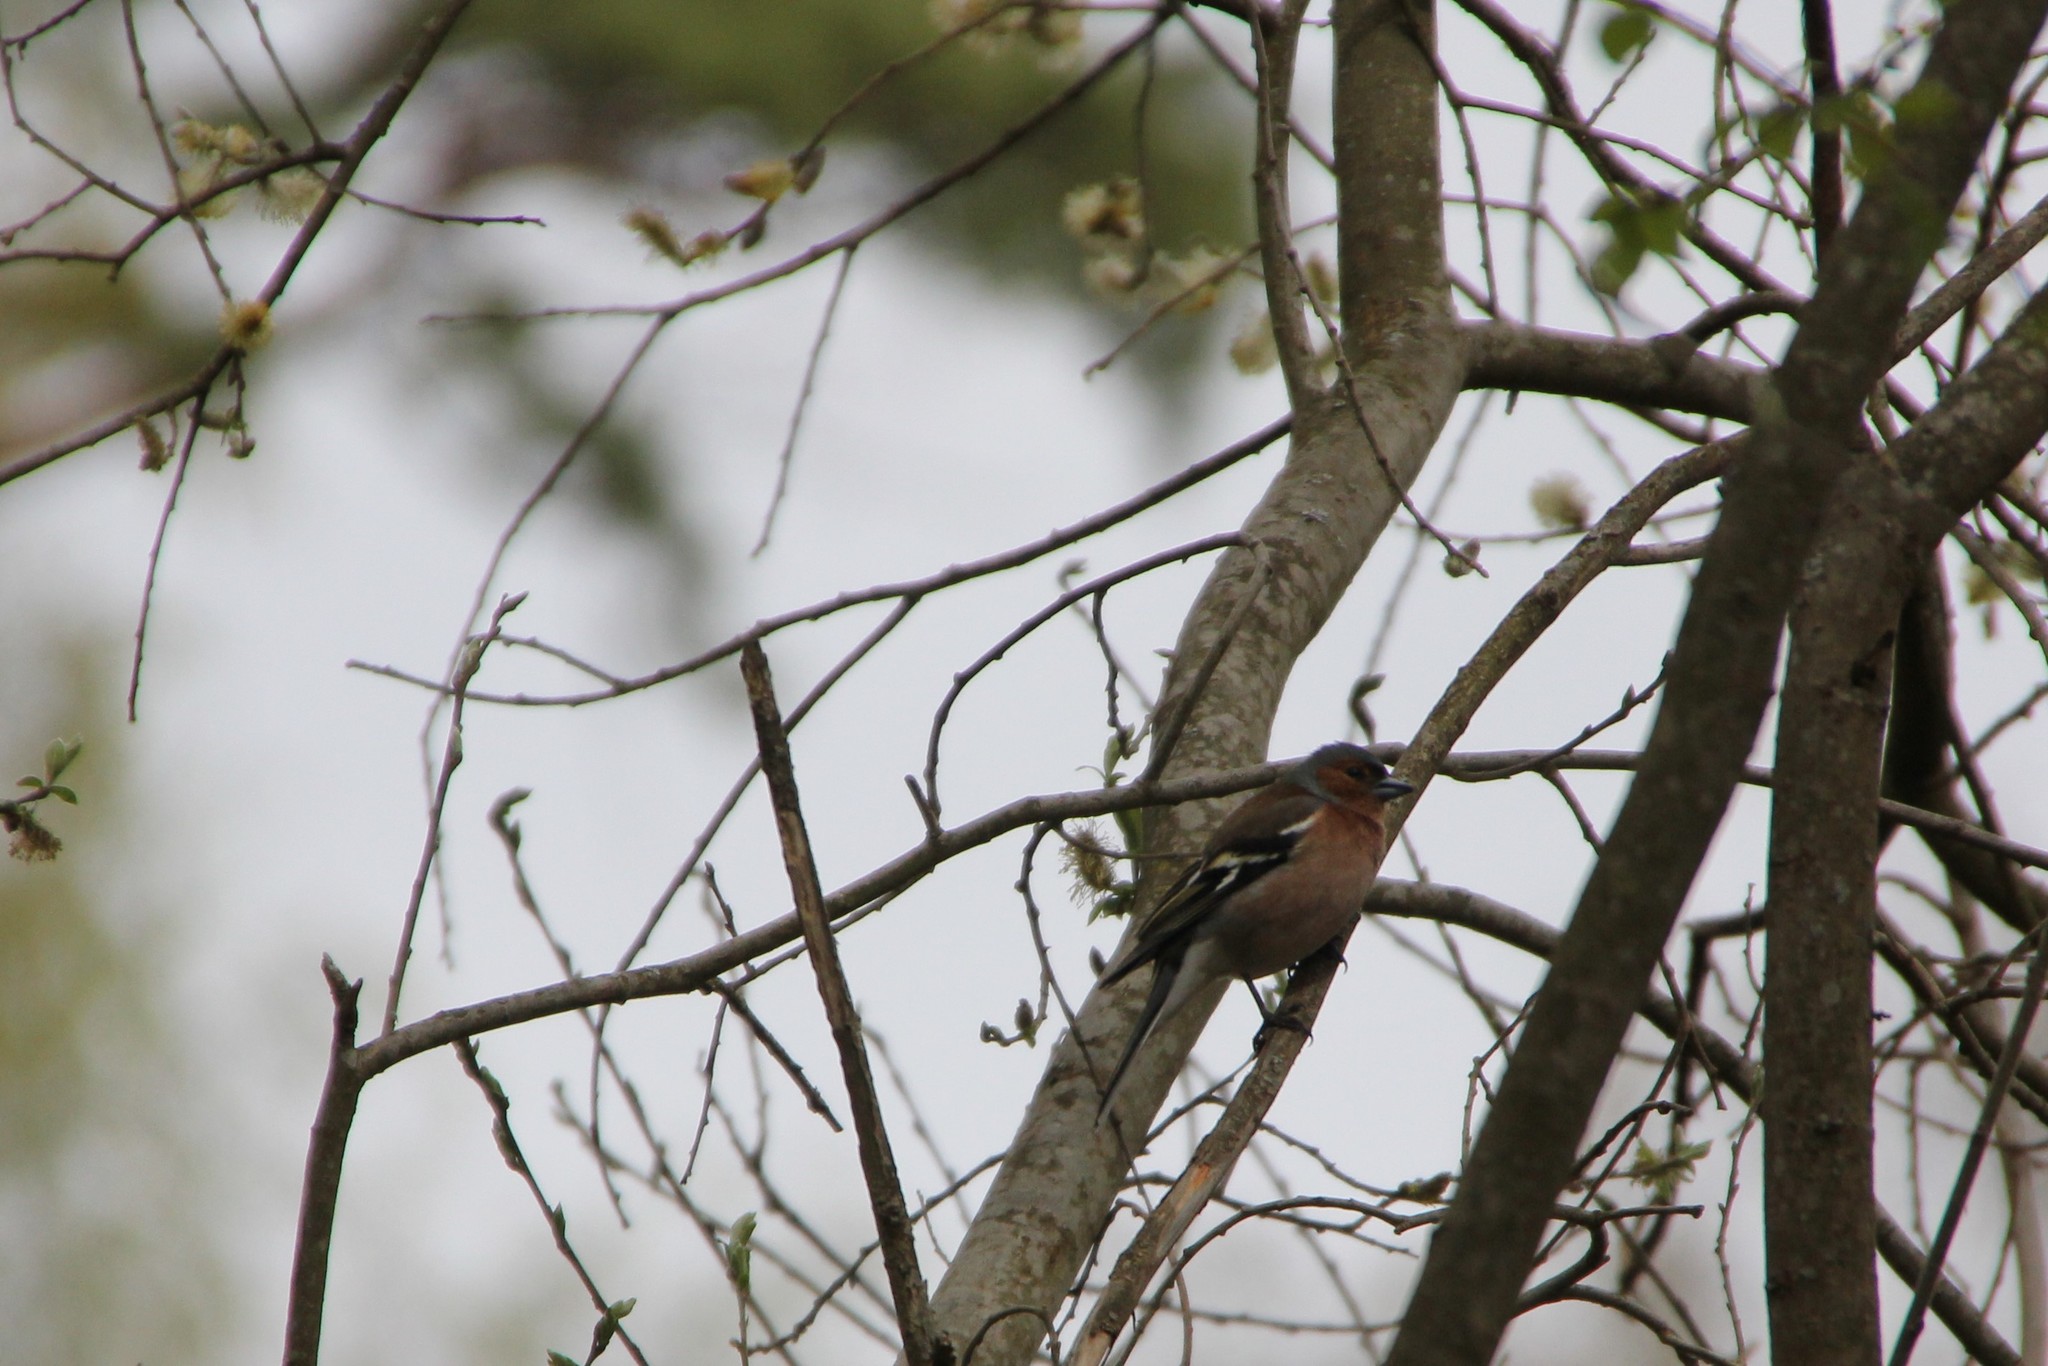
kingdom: Animalia
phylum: Chordata
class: Aves
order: Passeriformes
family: Fringillidae
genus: Fringilla
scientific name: Fringilla coelebs
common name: Common chaffinch
